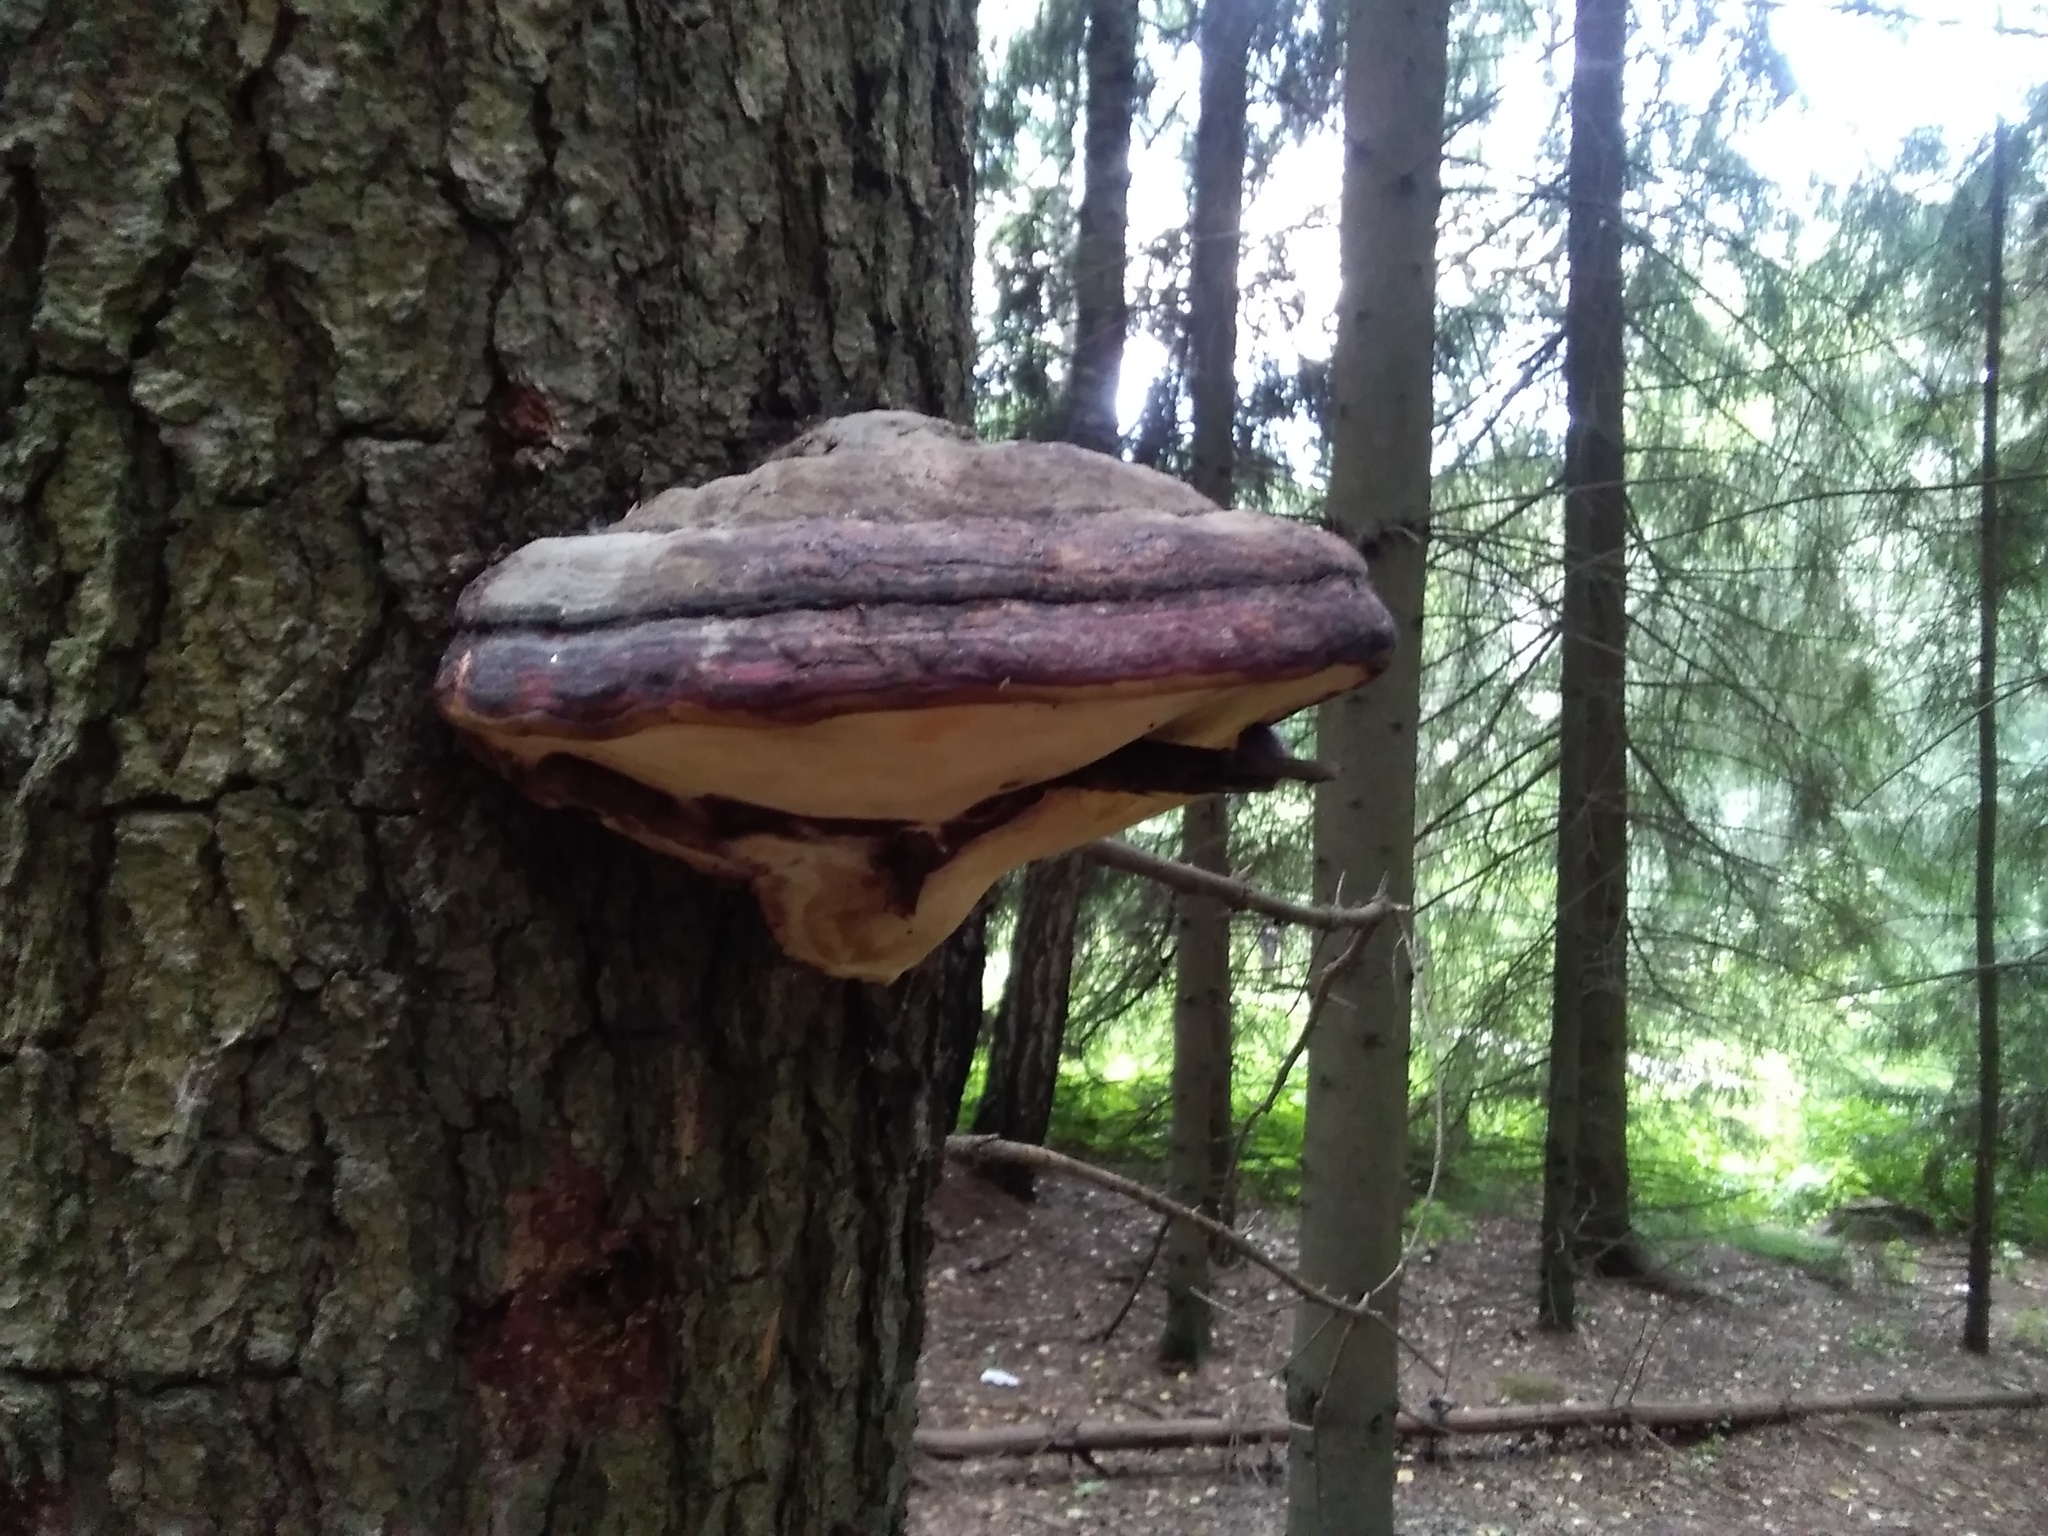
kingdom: Fungi
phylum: Basidiomycota
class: Agaricomycetes
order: Polyporales
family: Fomitopsidaceae
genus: Fomitopsis
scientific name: Fomitopsis pinicola
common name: Red-belted bracket
